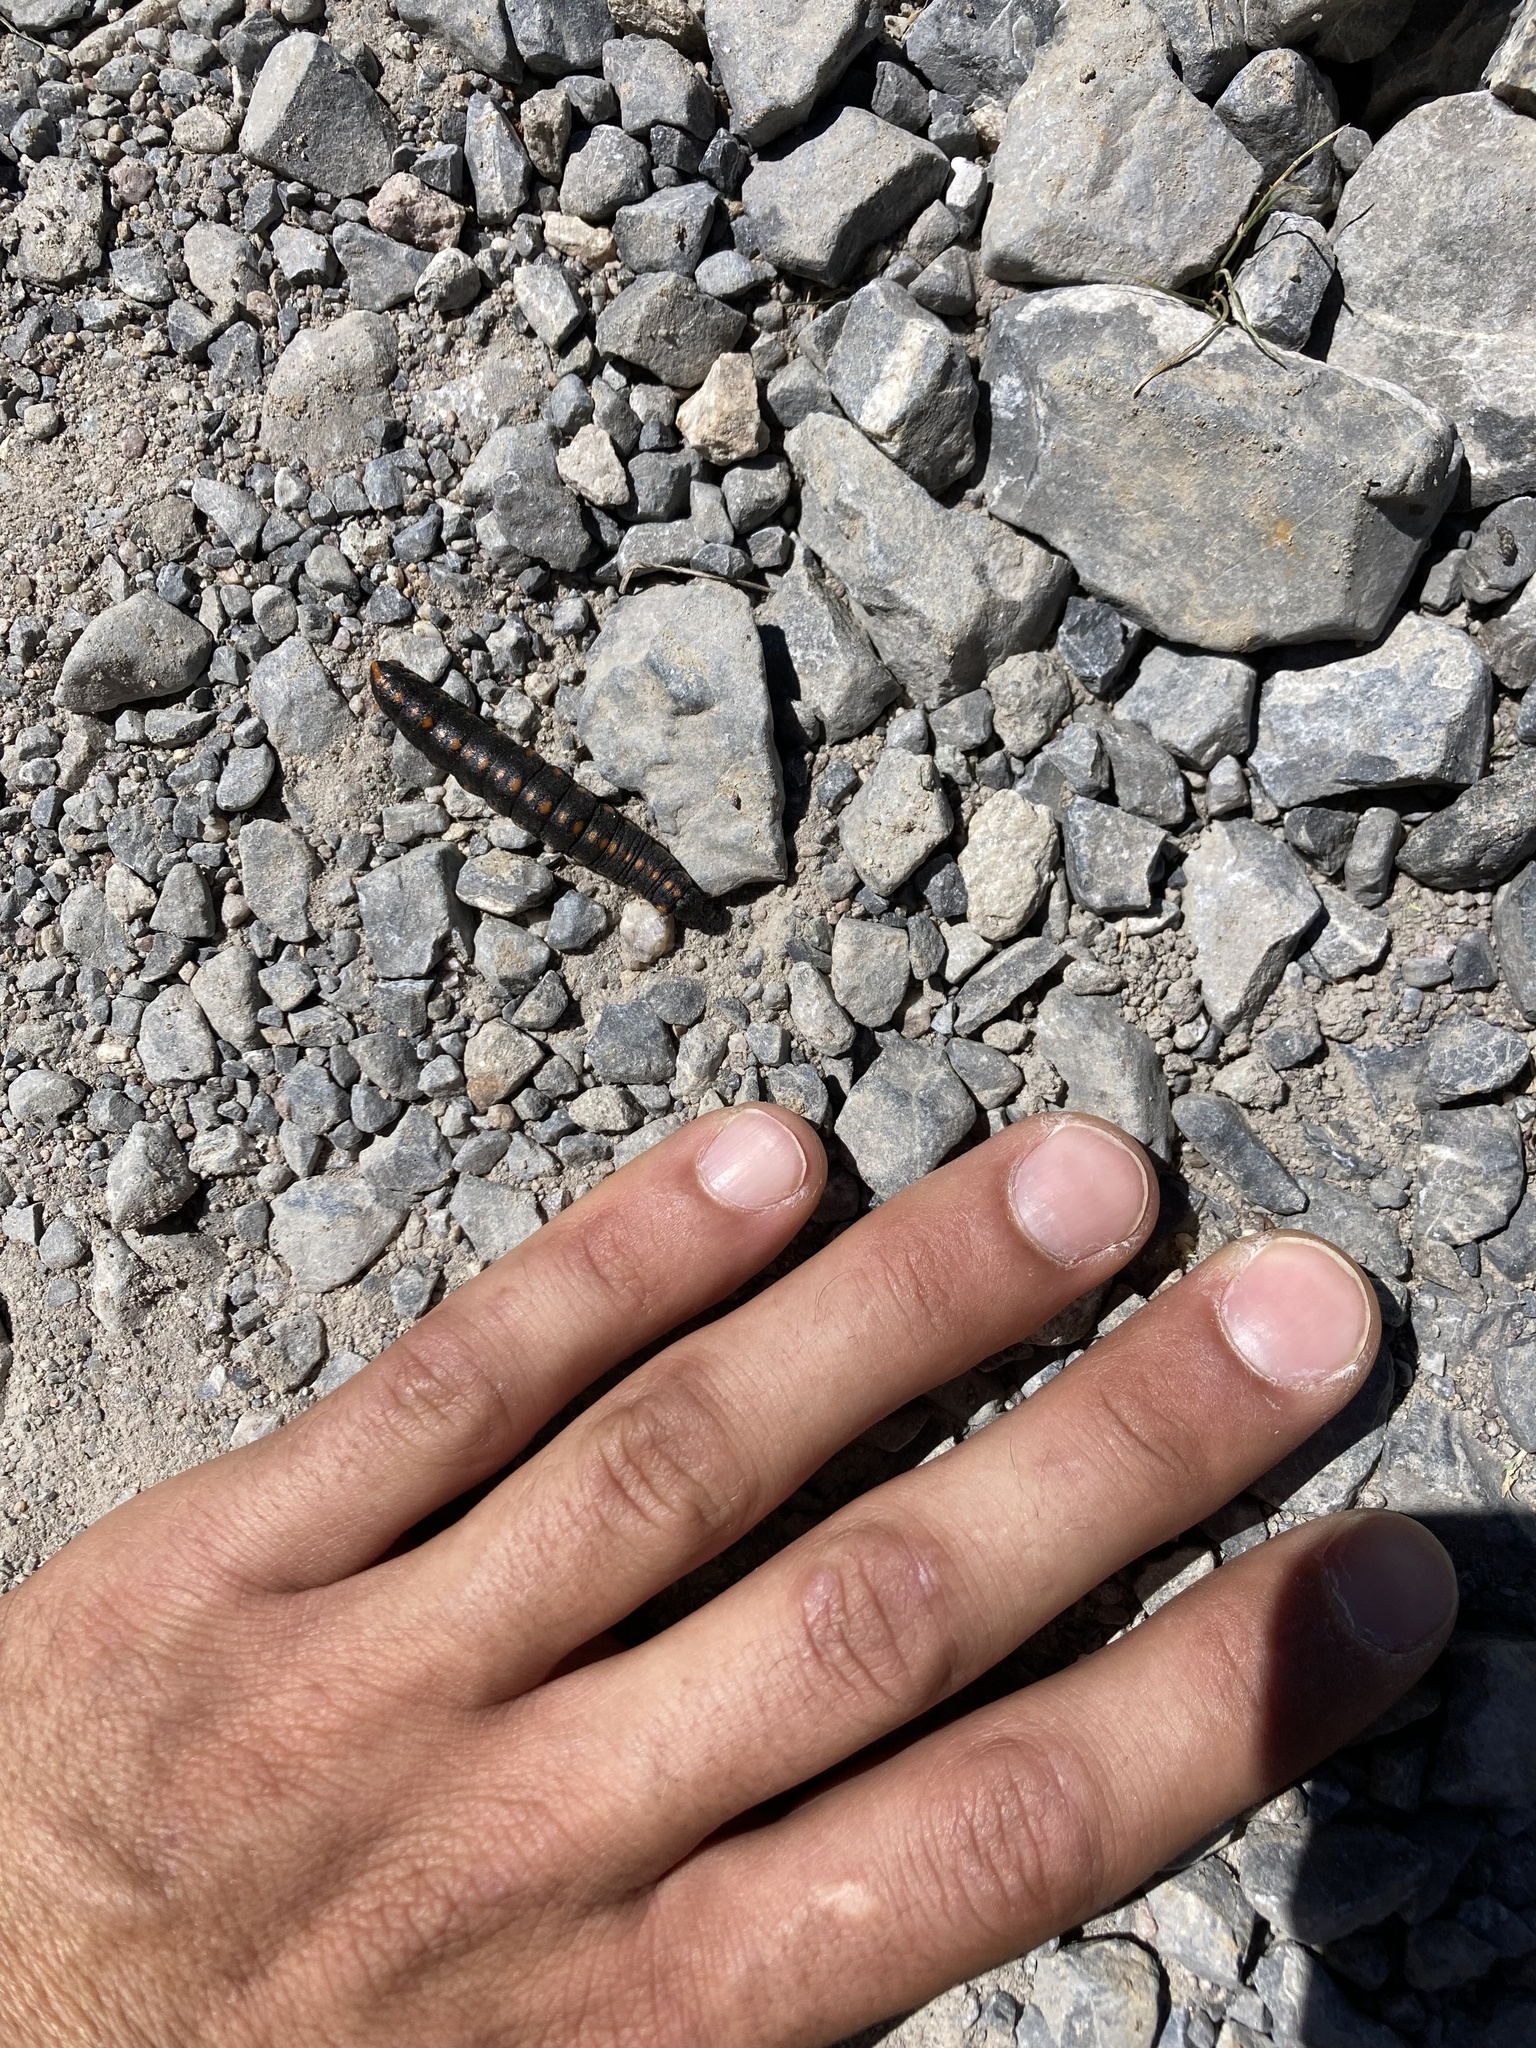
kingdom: Animalia
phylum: Arthropoda
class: Insecta
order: Lepidoptera
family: Noctuidae
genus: Cucullia
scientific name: Cucullia lucifuga
